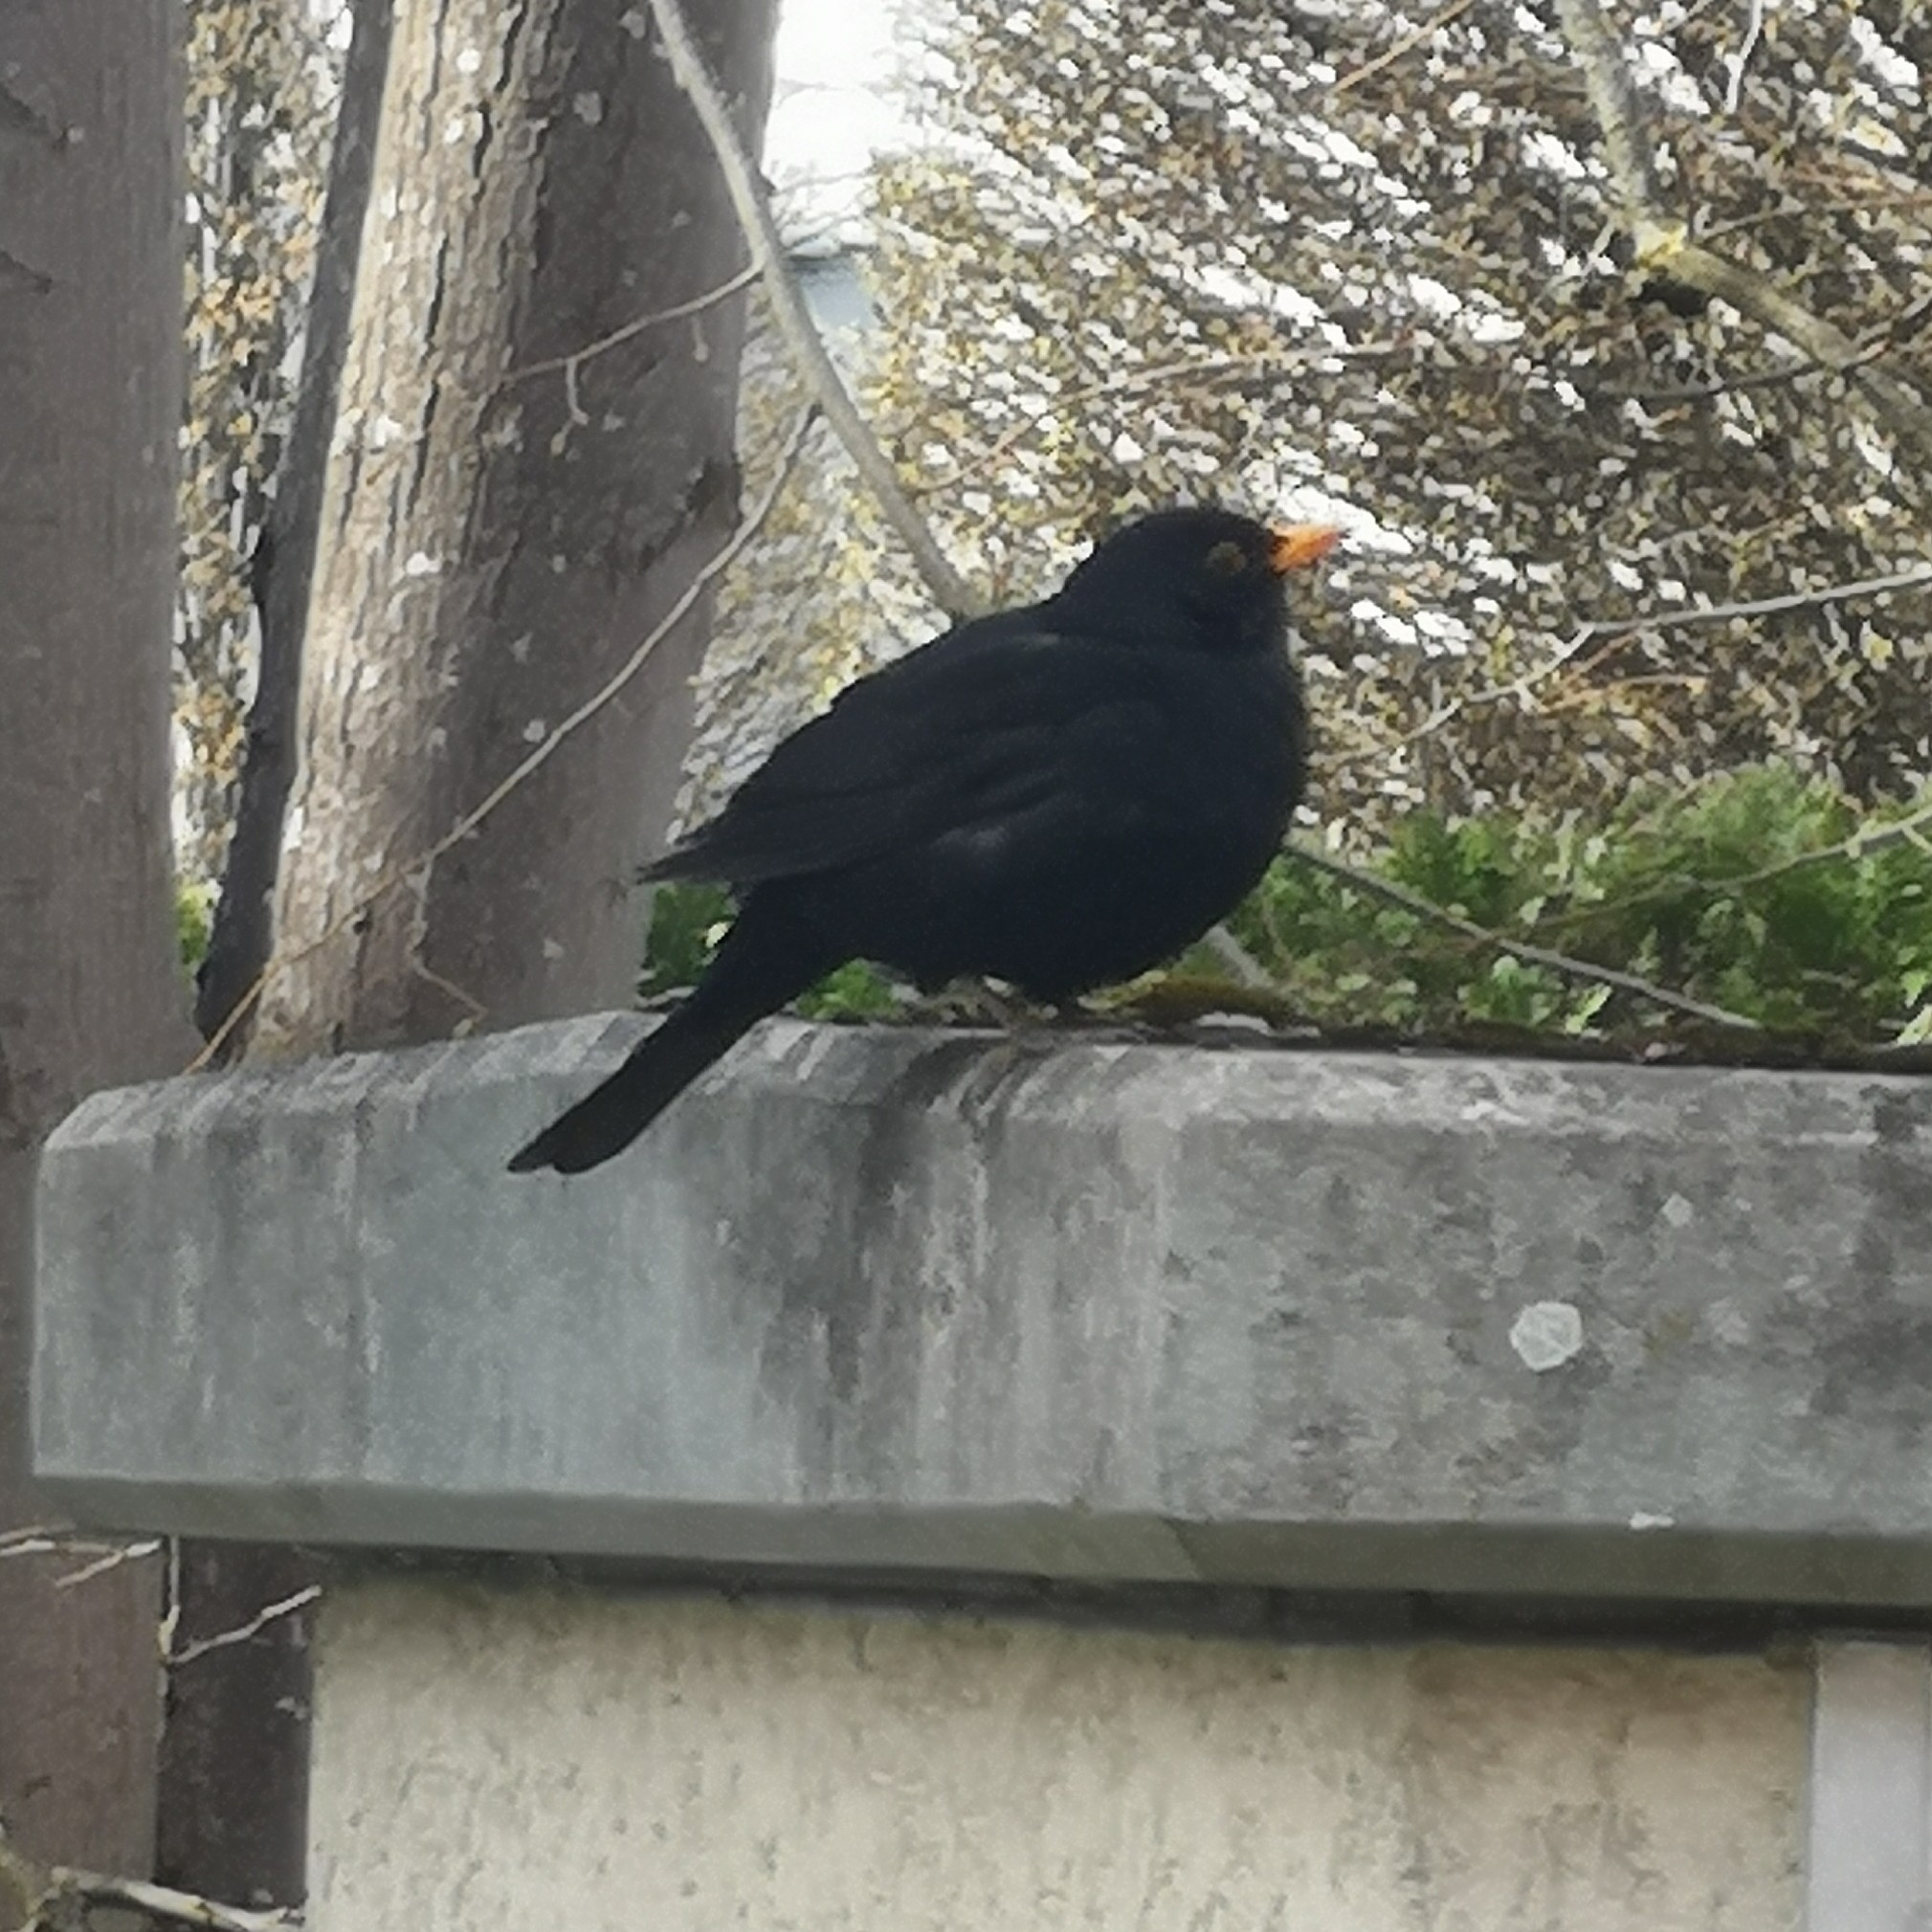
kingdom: Animalia
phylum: Chordata
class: Aves
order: Passeriformes
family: Turdidae
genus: Turdus
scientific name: Turdus merula
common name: Common blackbird
